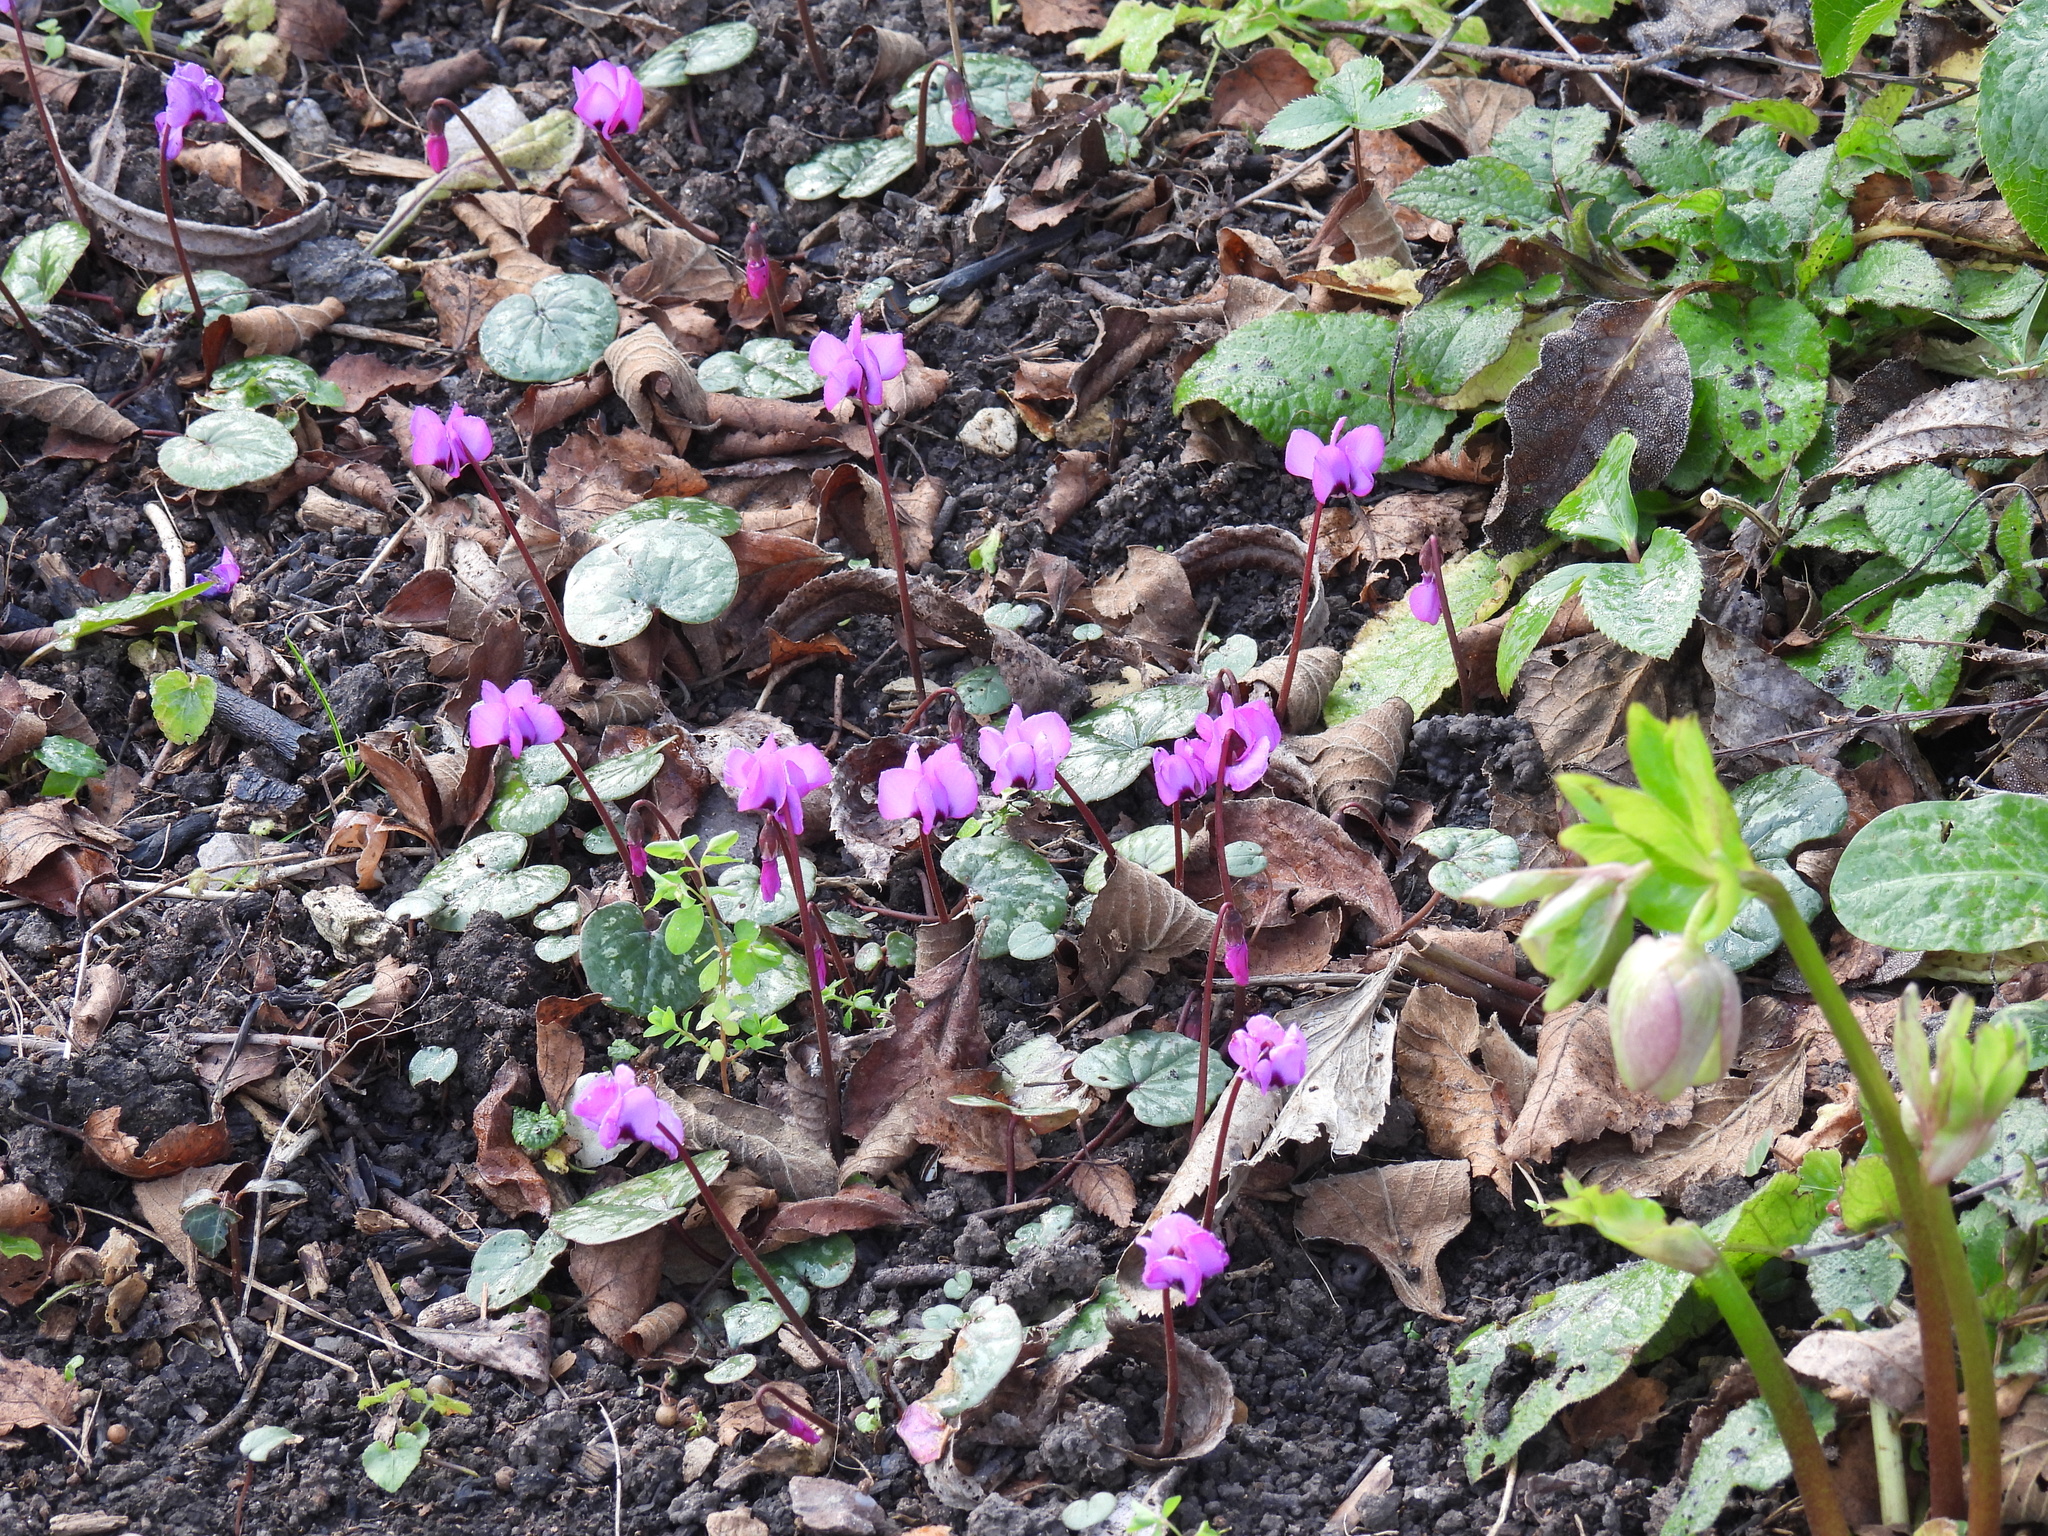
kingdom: Plantae
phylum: Tracheophyta
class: Magnoliopsida
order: Ericales
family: Primulaceae
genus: Cyclamen
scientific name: Cyclamen coum
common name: Eastern sowbread
